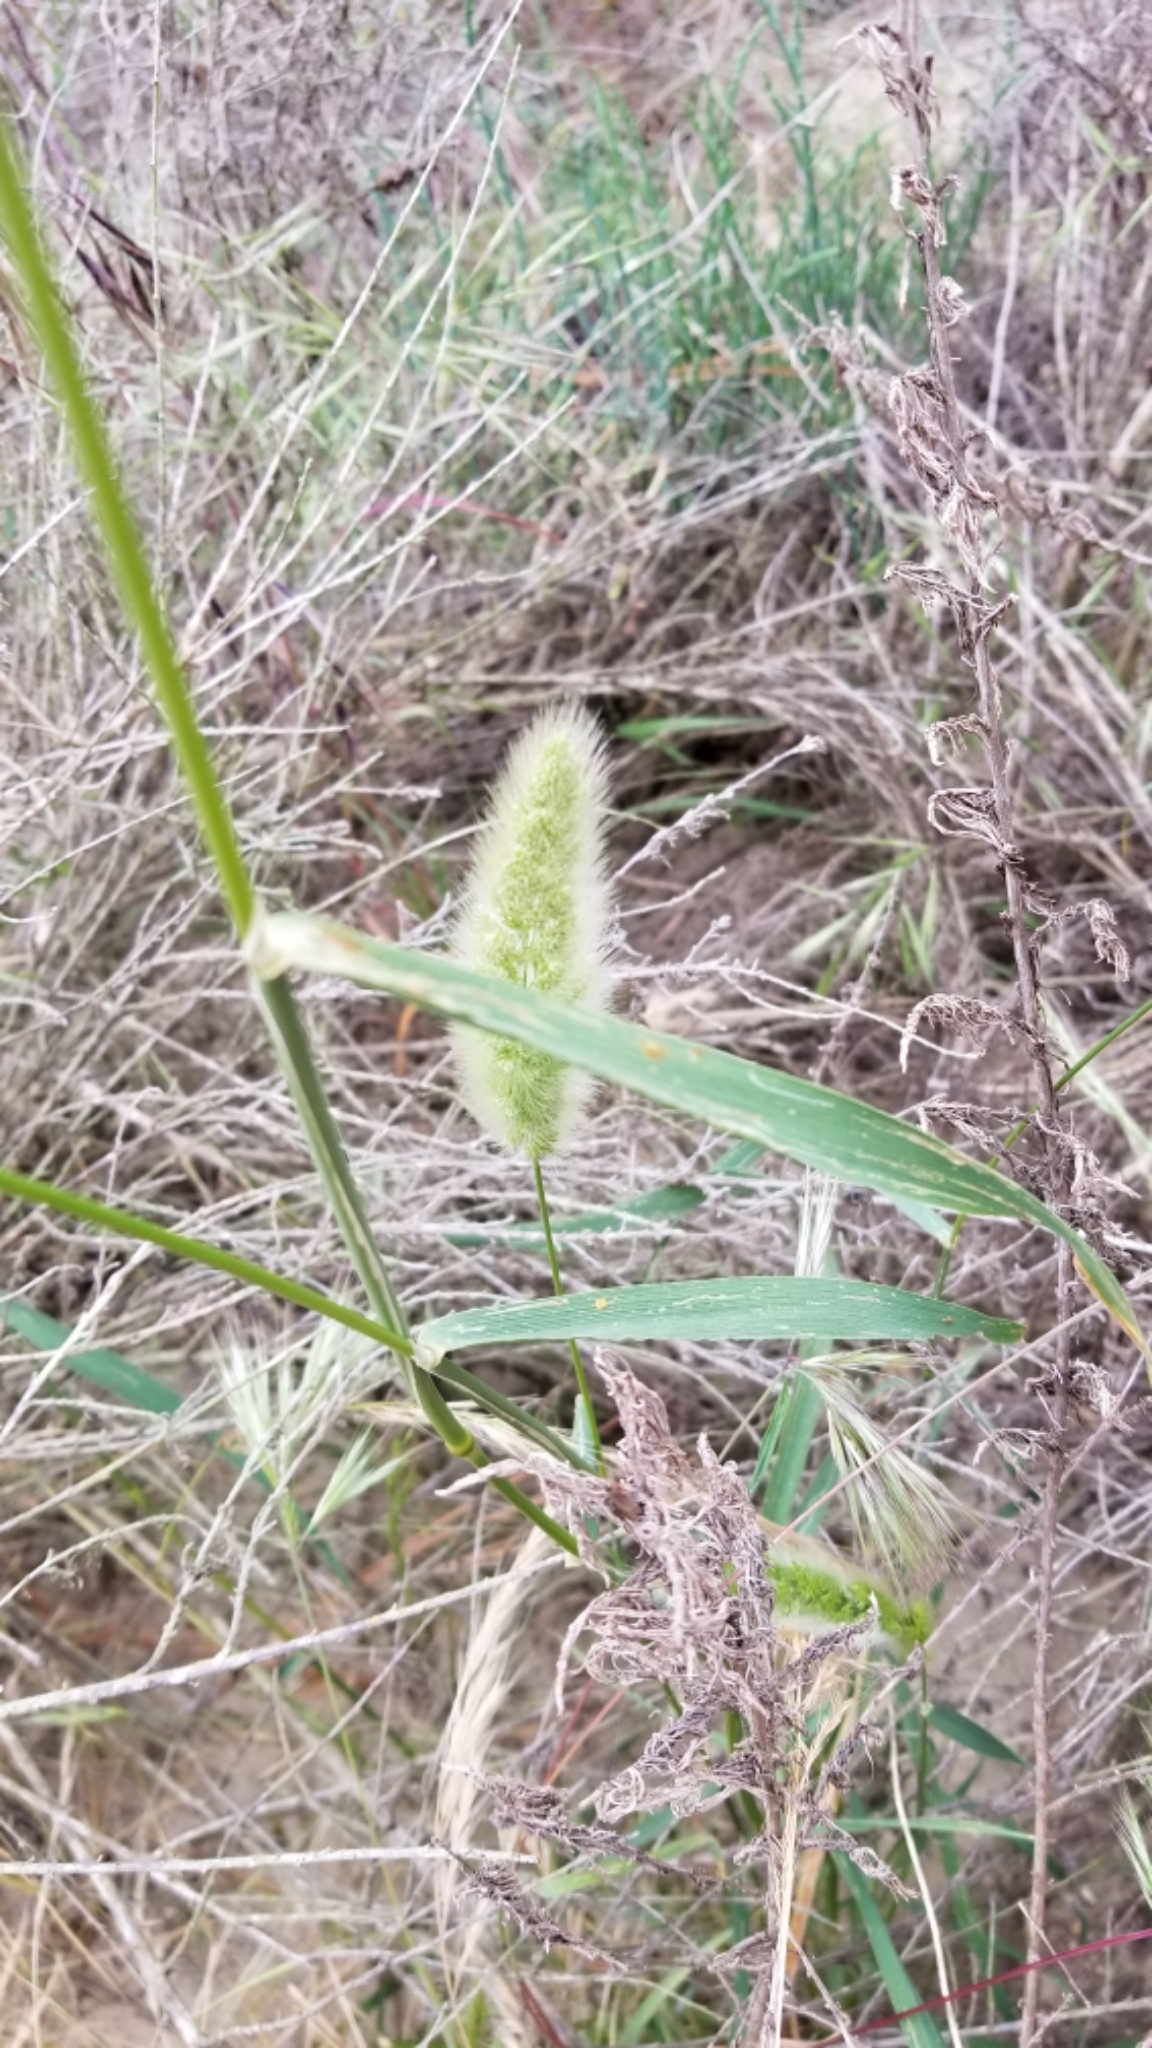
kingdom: Plantae
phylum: Tracheophyta
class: Liliopsida
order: Poales
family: Poaceae
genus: Polypogon
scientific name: Polypogon monspeliensis
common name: Annual rabbitsfoot grass
